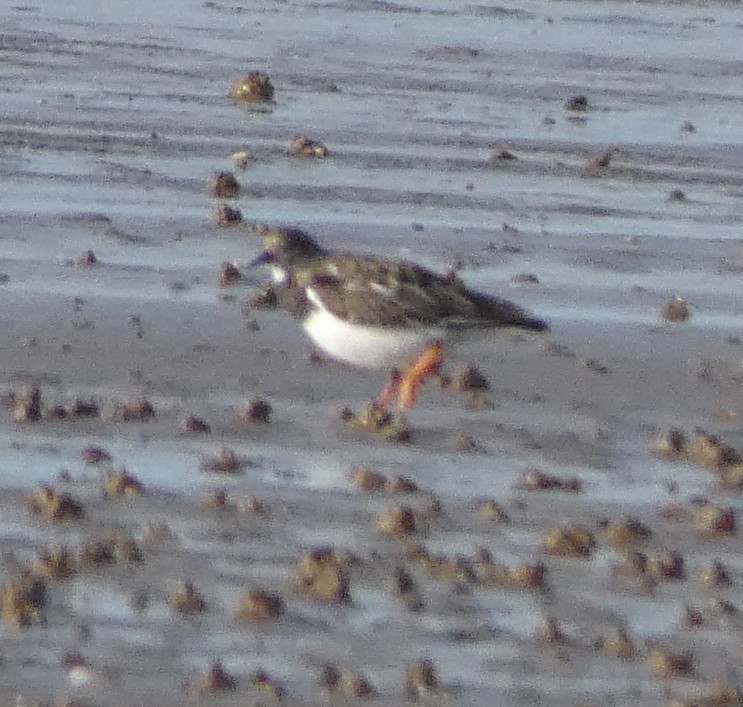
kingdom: Animalia
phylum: Chordata
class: Aves
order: Charadriiformes
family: Scolopacidae
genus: Arenaria
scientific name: Arenaria interpres
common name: Ruddy turnstone
